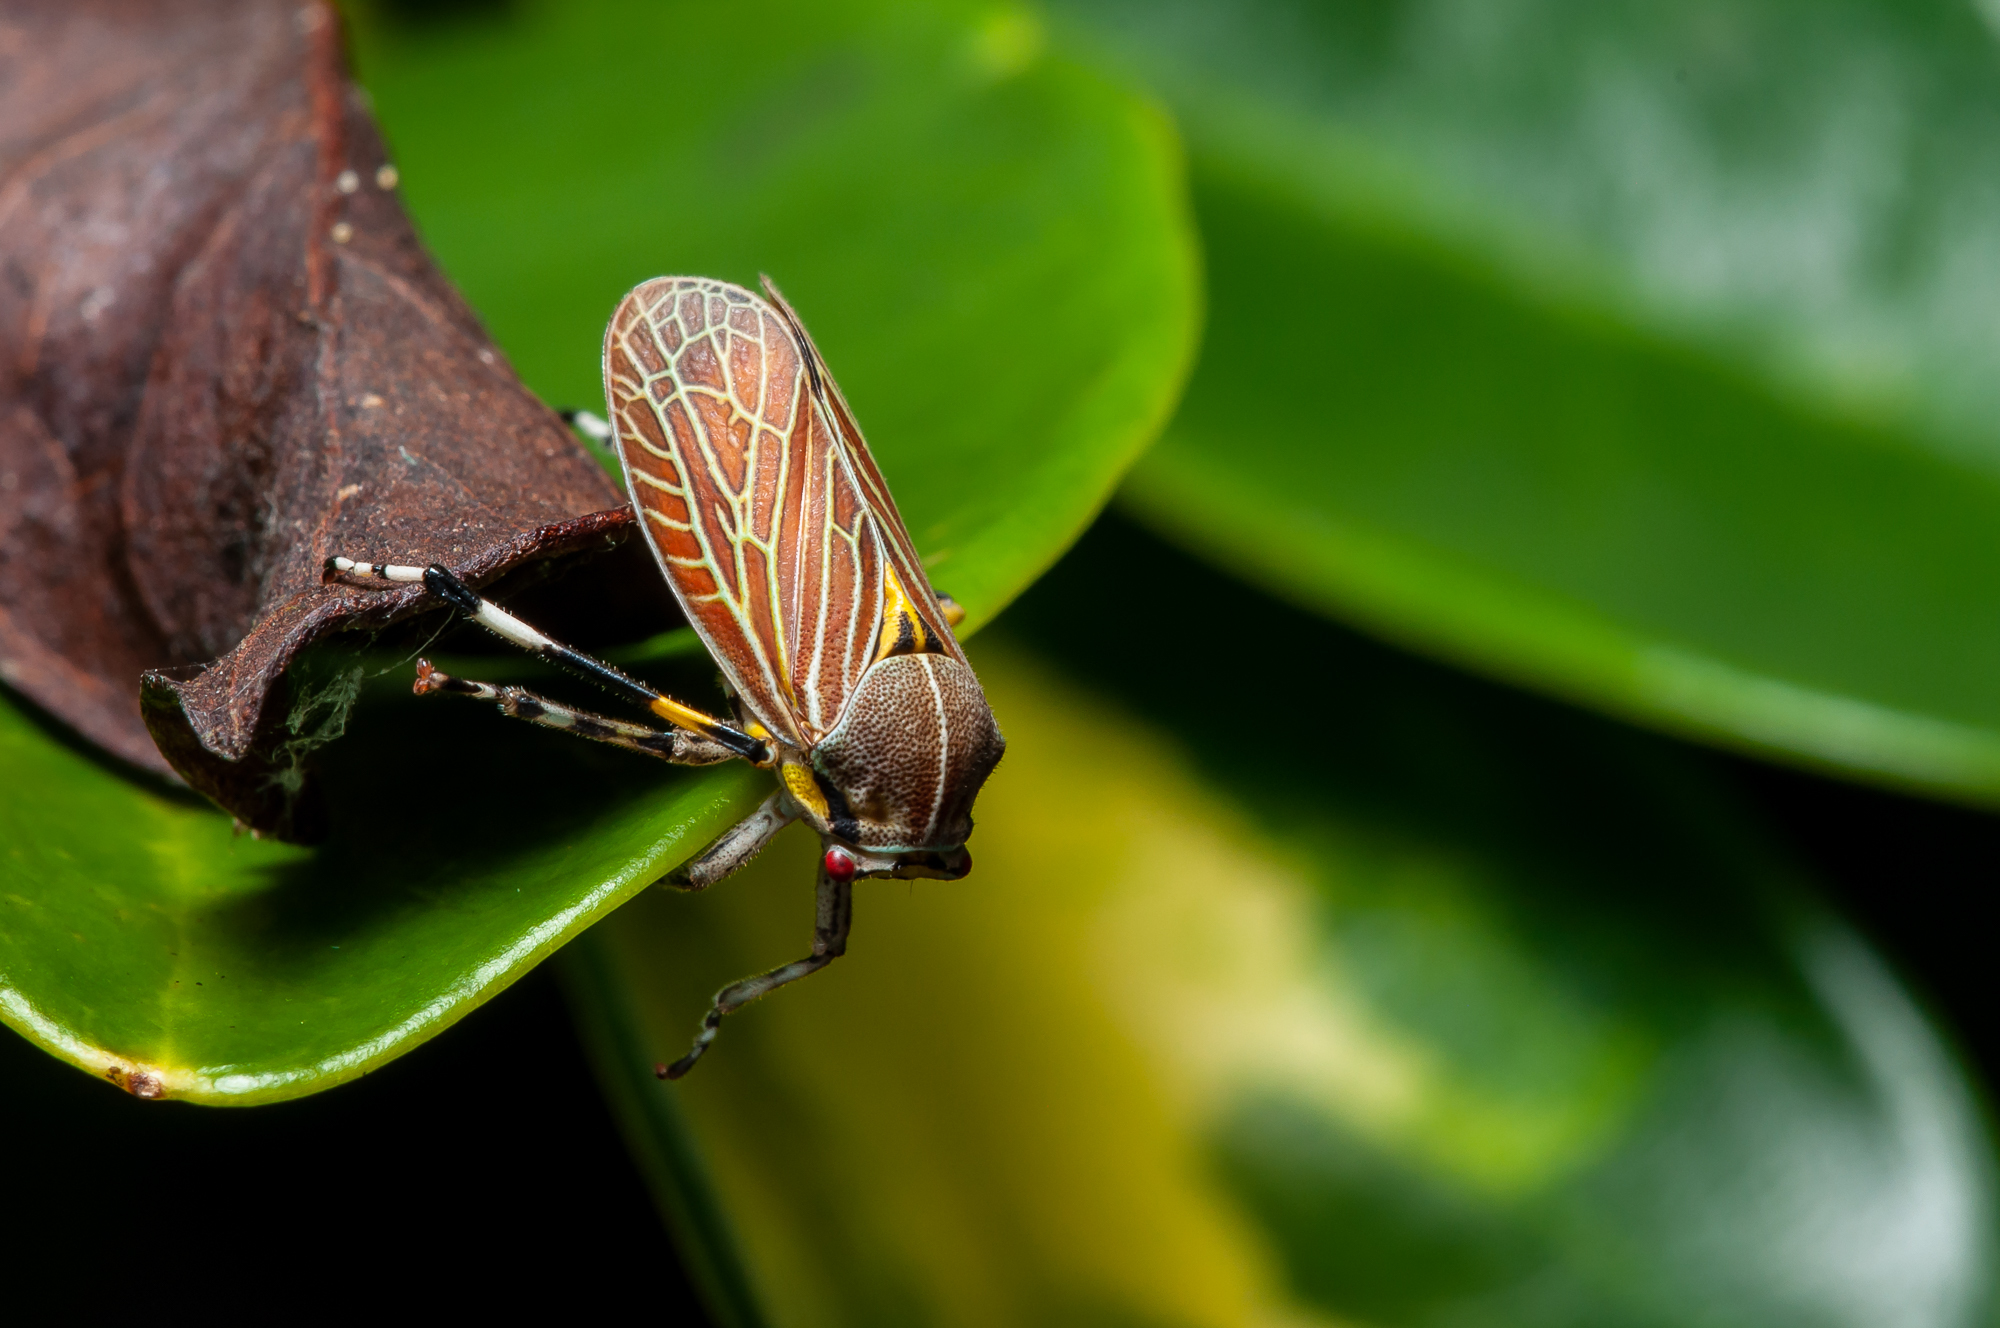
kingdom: Animalia
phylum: Arthropoda
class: Insecta
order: Hemiptera
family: Aetalionidae
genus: Aetalion
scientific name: Aetalion reticulatum
